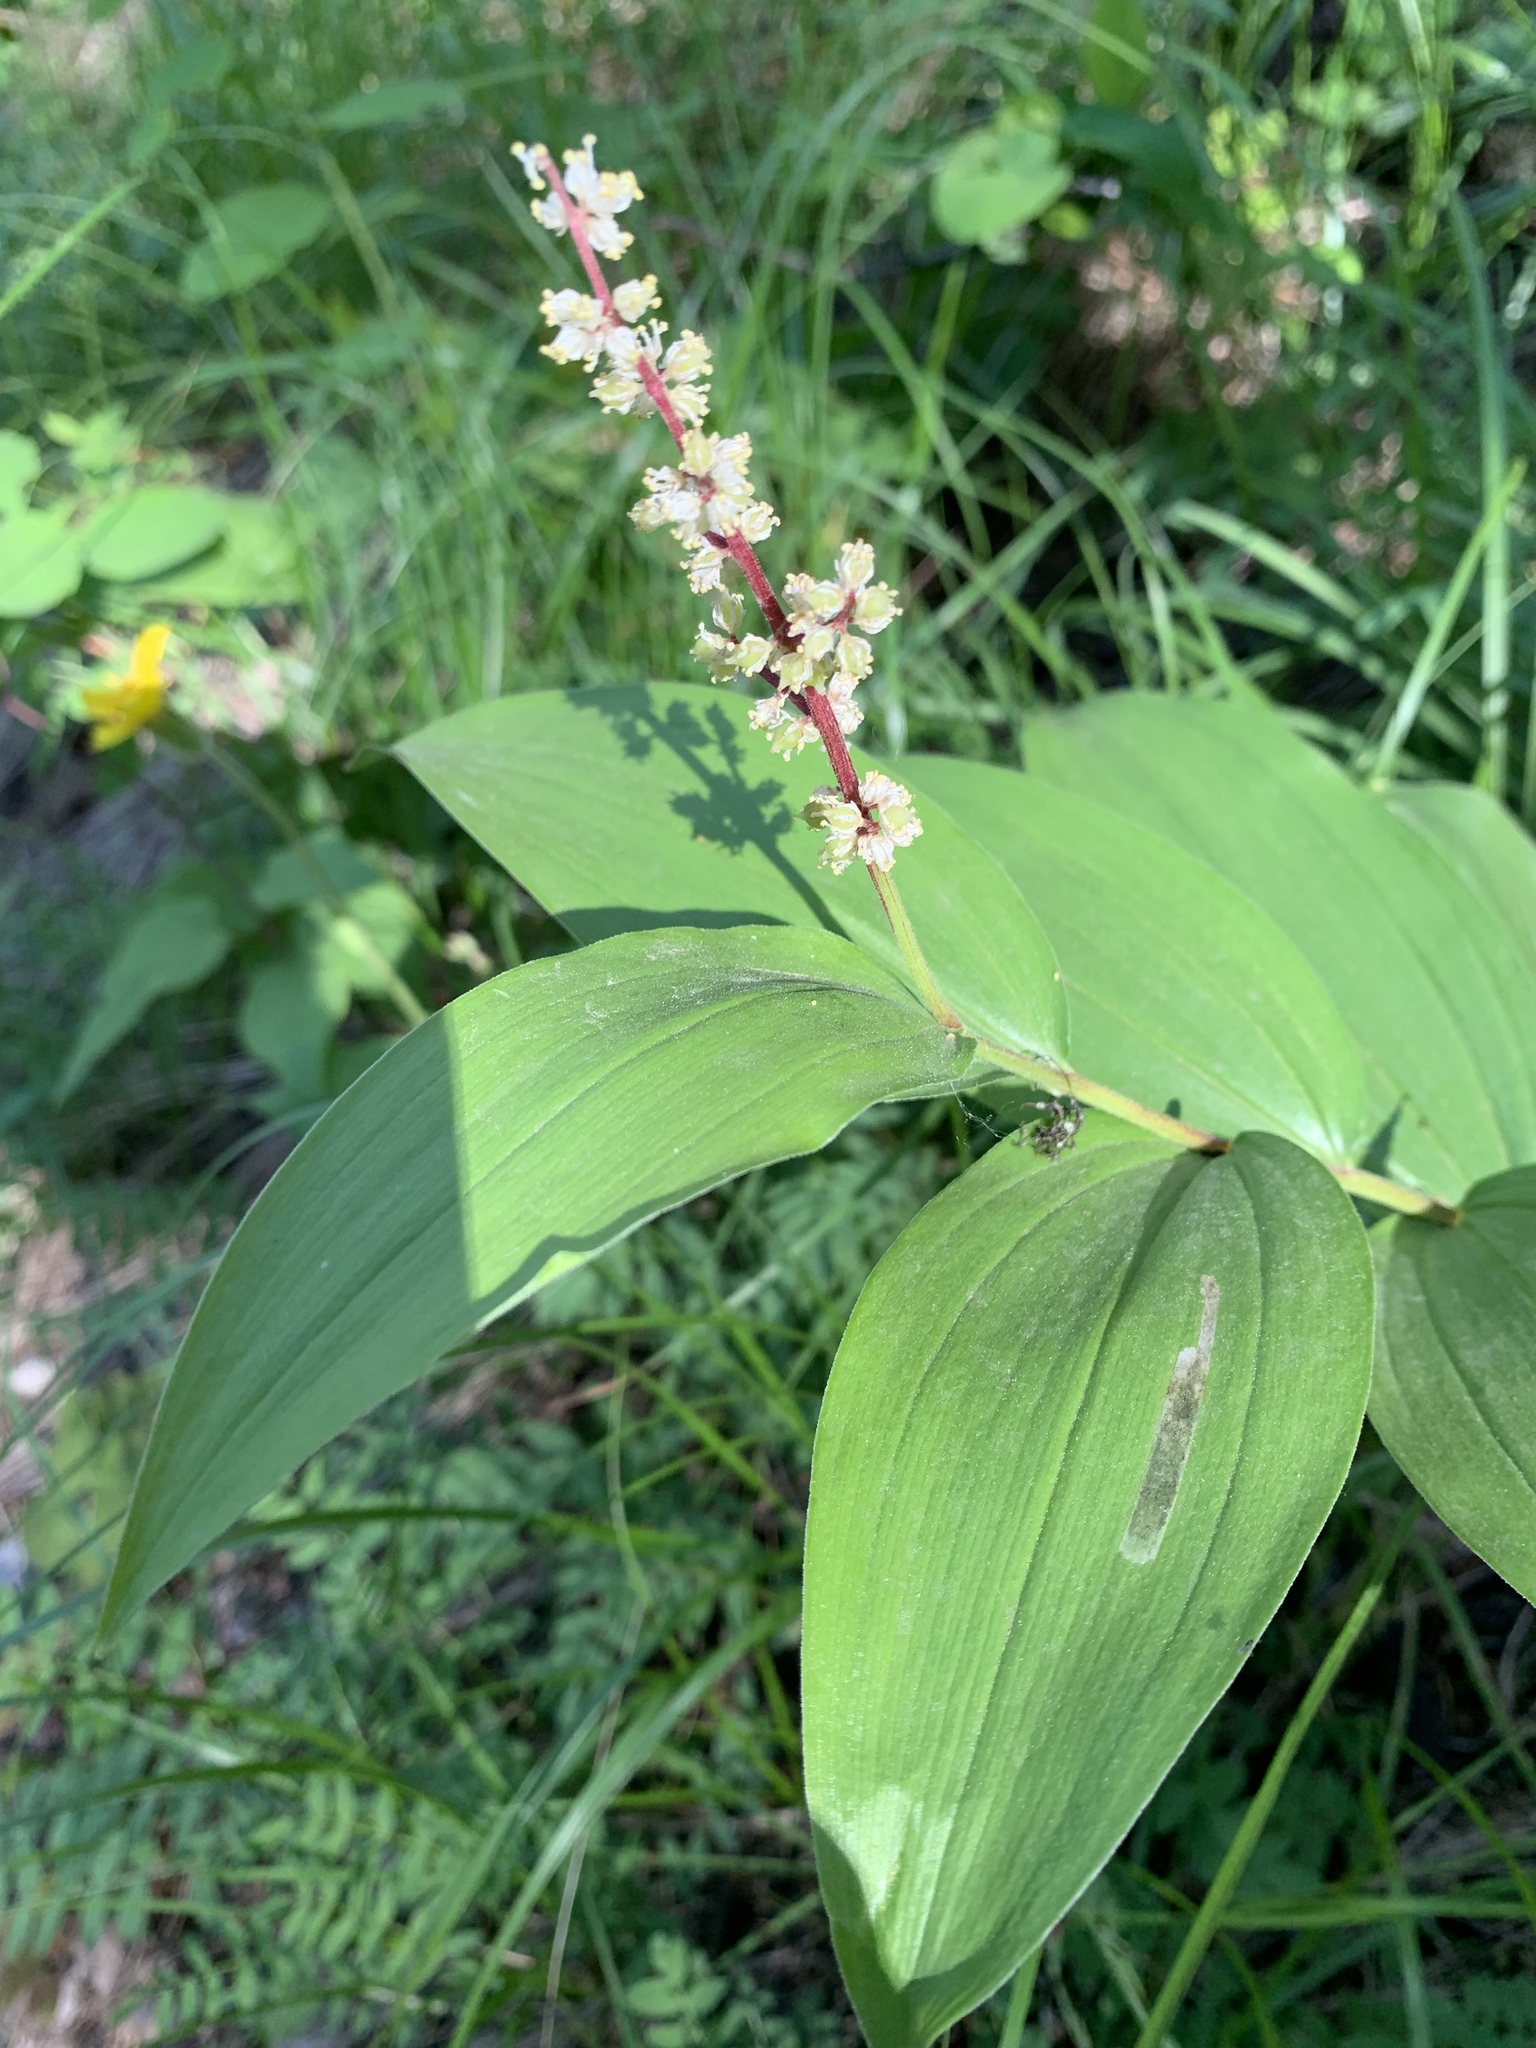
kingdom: Plantae
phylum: Tracheophyta
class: Liliopsida
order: Asparagales
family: Asparagaceae
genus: Maianthemum
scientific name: Maianthemum racemosum
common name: False spikenard
